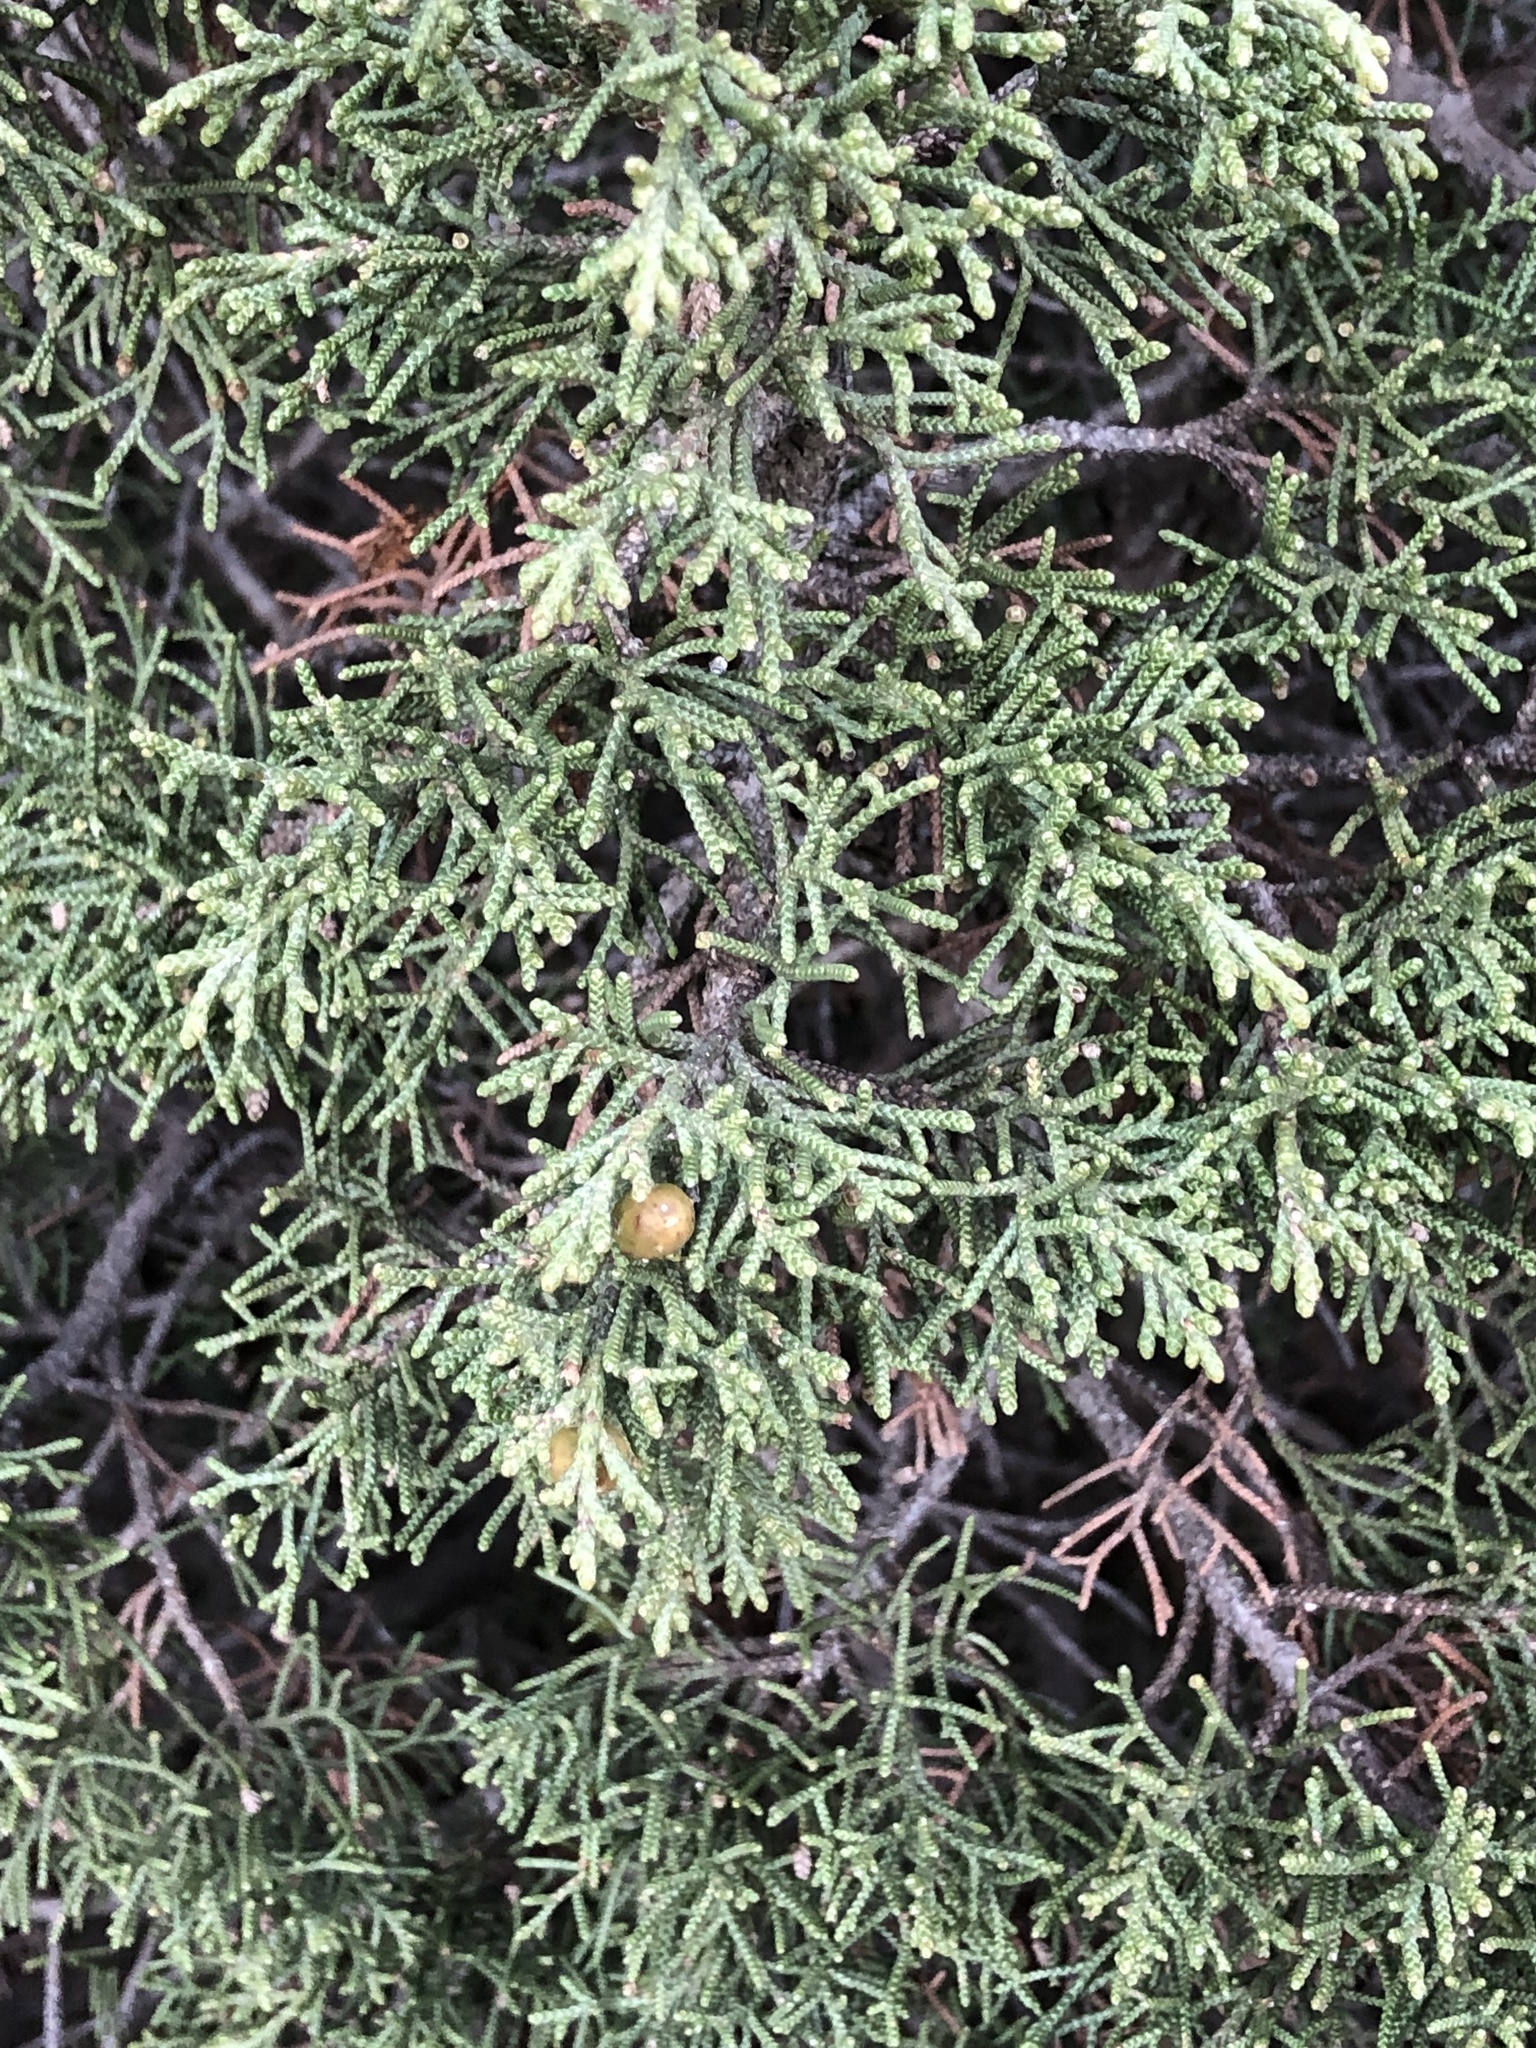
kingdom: Plantae
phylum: Tracheophyta
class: Pinopsida
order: Pinales
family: Cupressaceae
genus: Juniperus
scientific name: Juniperus phoenicea
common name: Phoenician juniper
